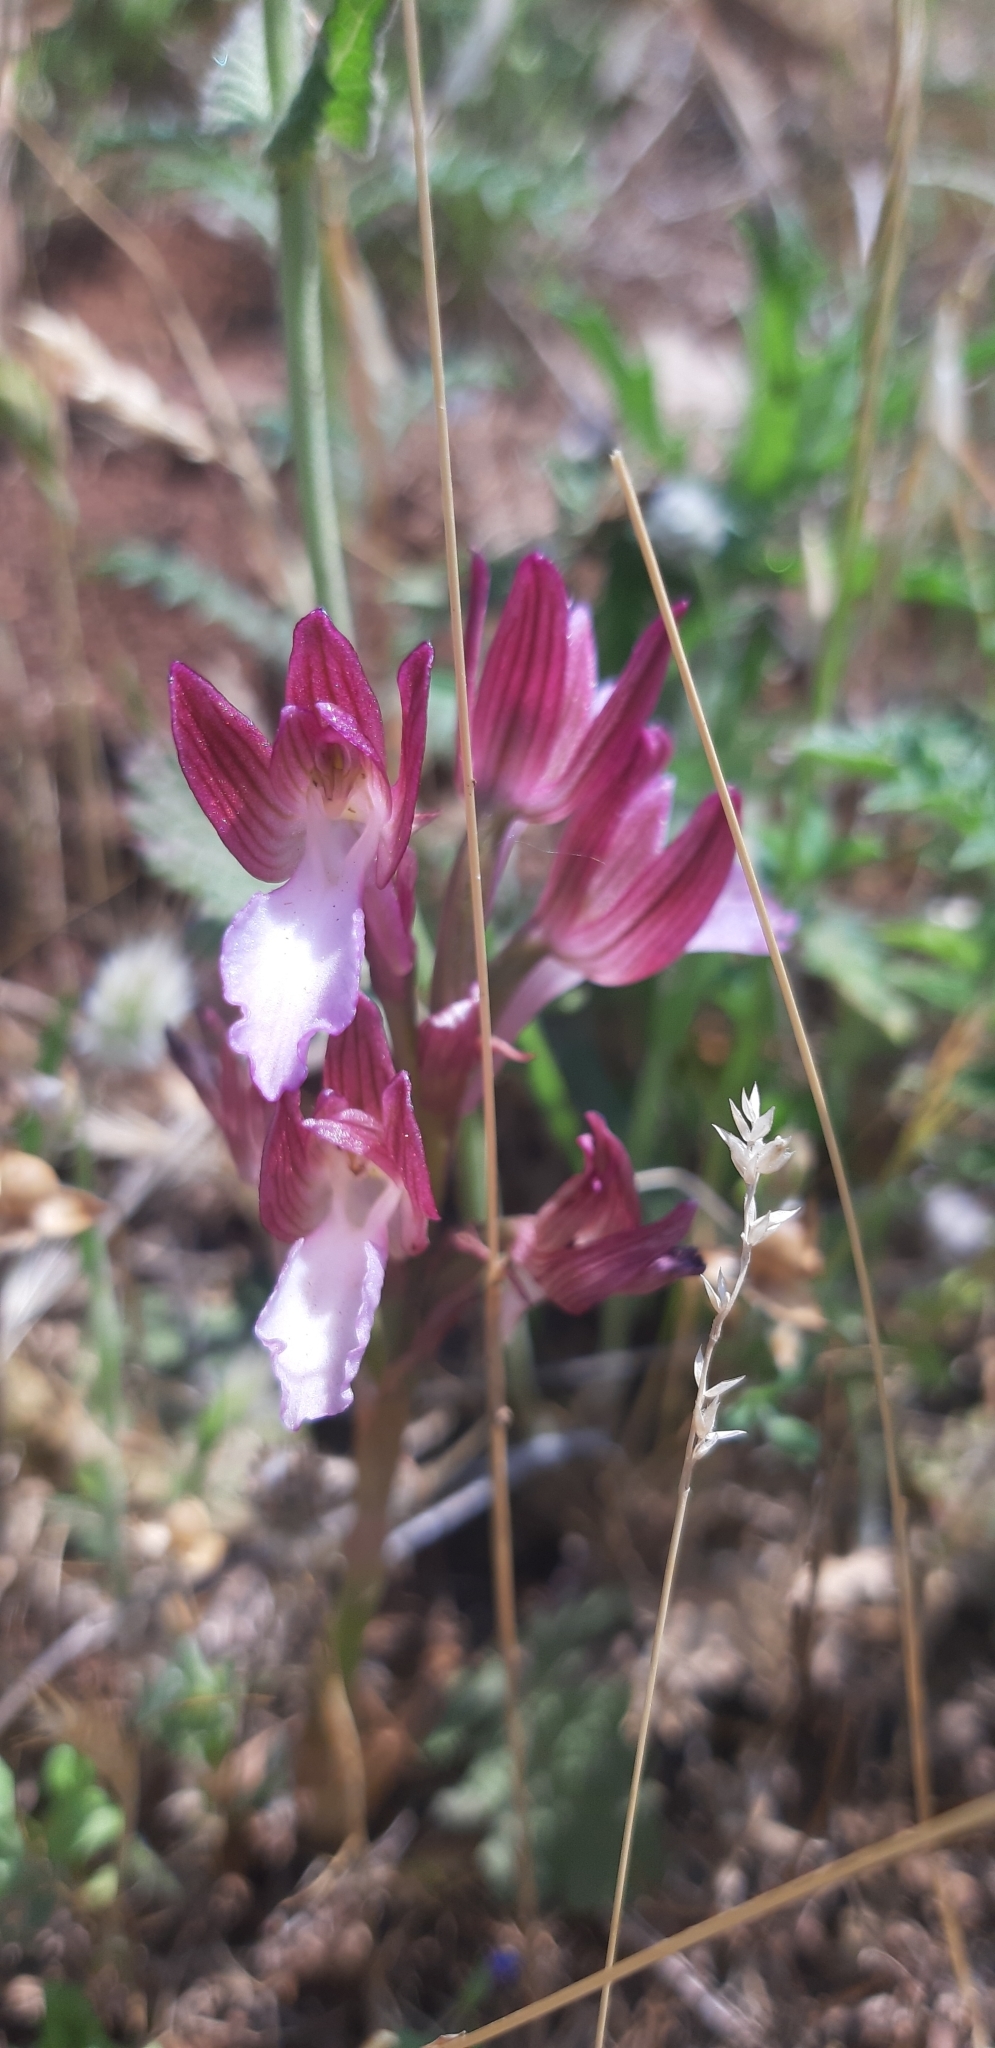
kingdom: Plantae
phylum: Tracheophyta
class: Liliopsida
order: Asparagales
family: Orchidaceae
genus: Anacamptis
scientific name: Anacamptis papilionacea
